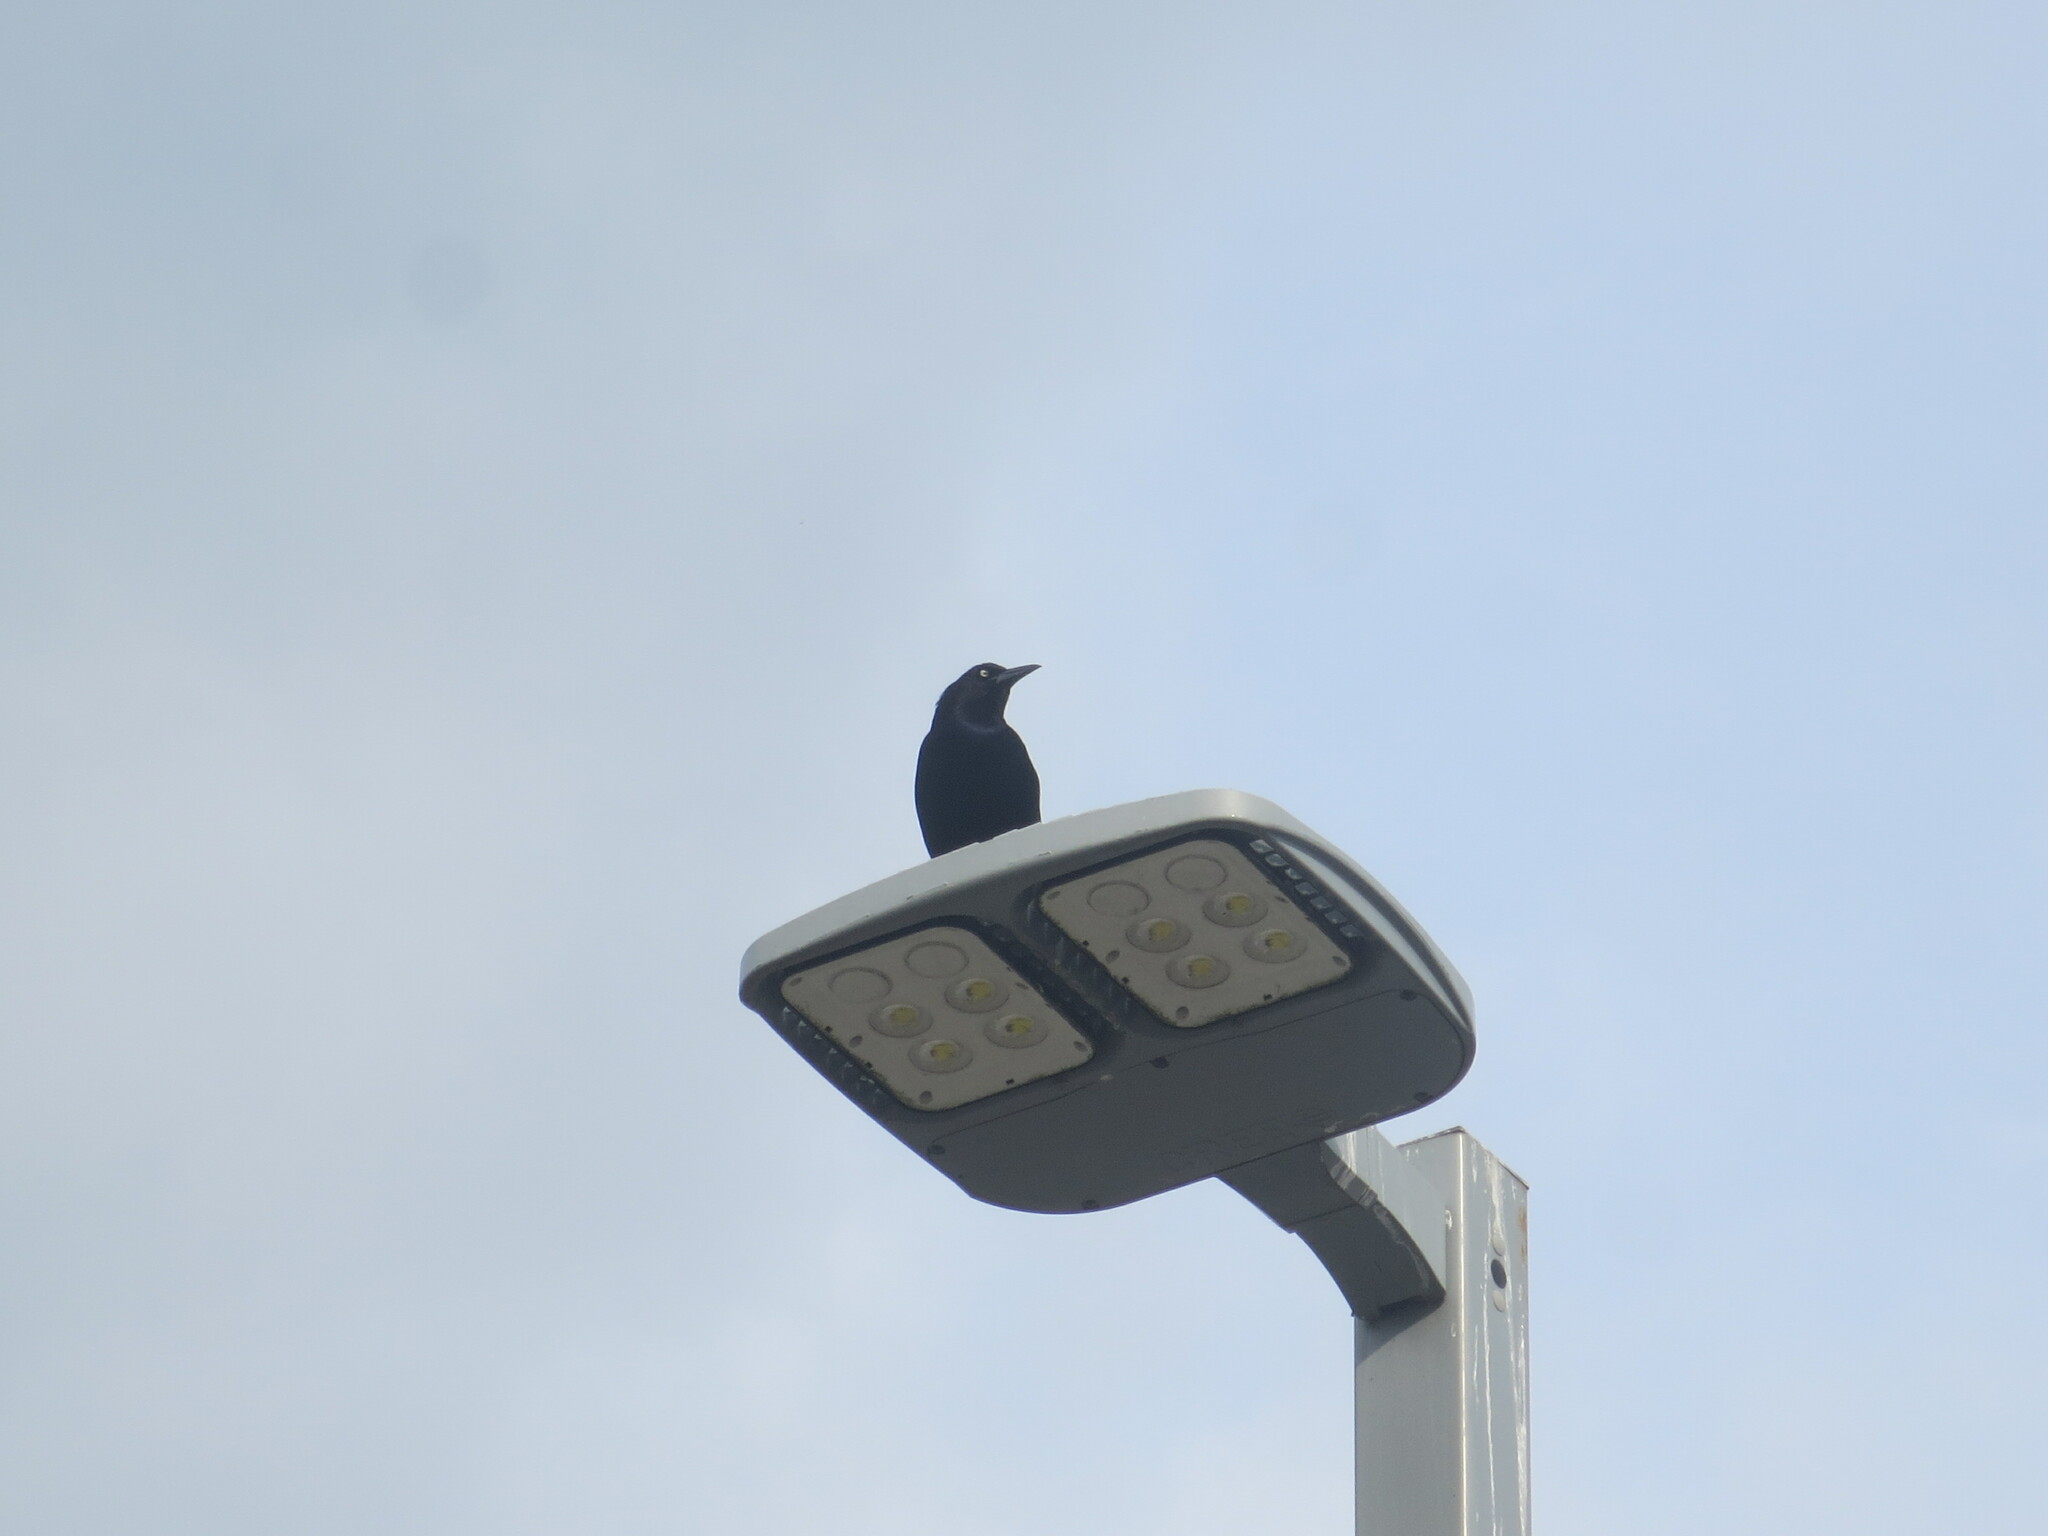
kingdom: Animalia
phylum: Chordata
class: Aves
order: Passeriformes
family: Icteridae
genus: Quiscalus
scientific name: Quiscalus major
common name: Boat-tailed grackle
